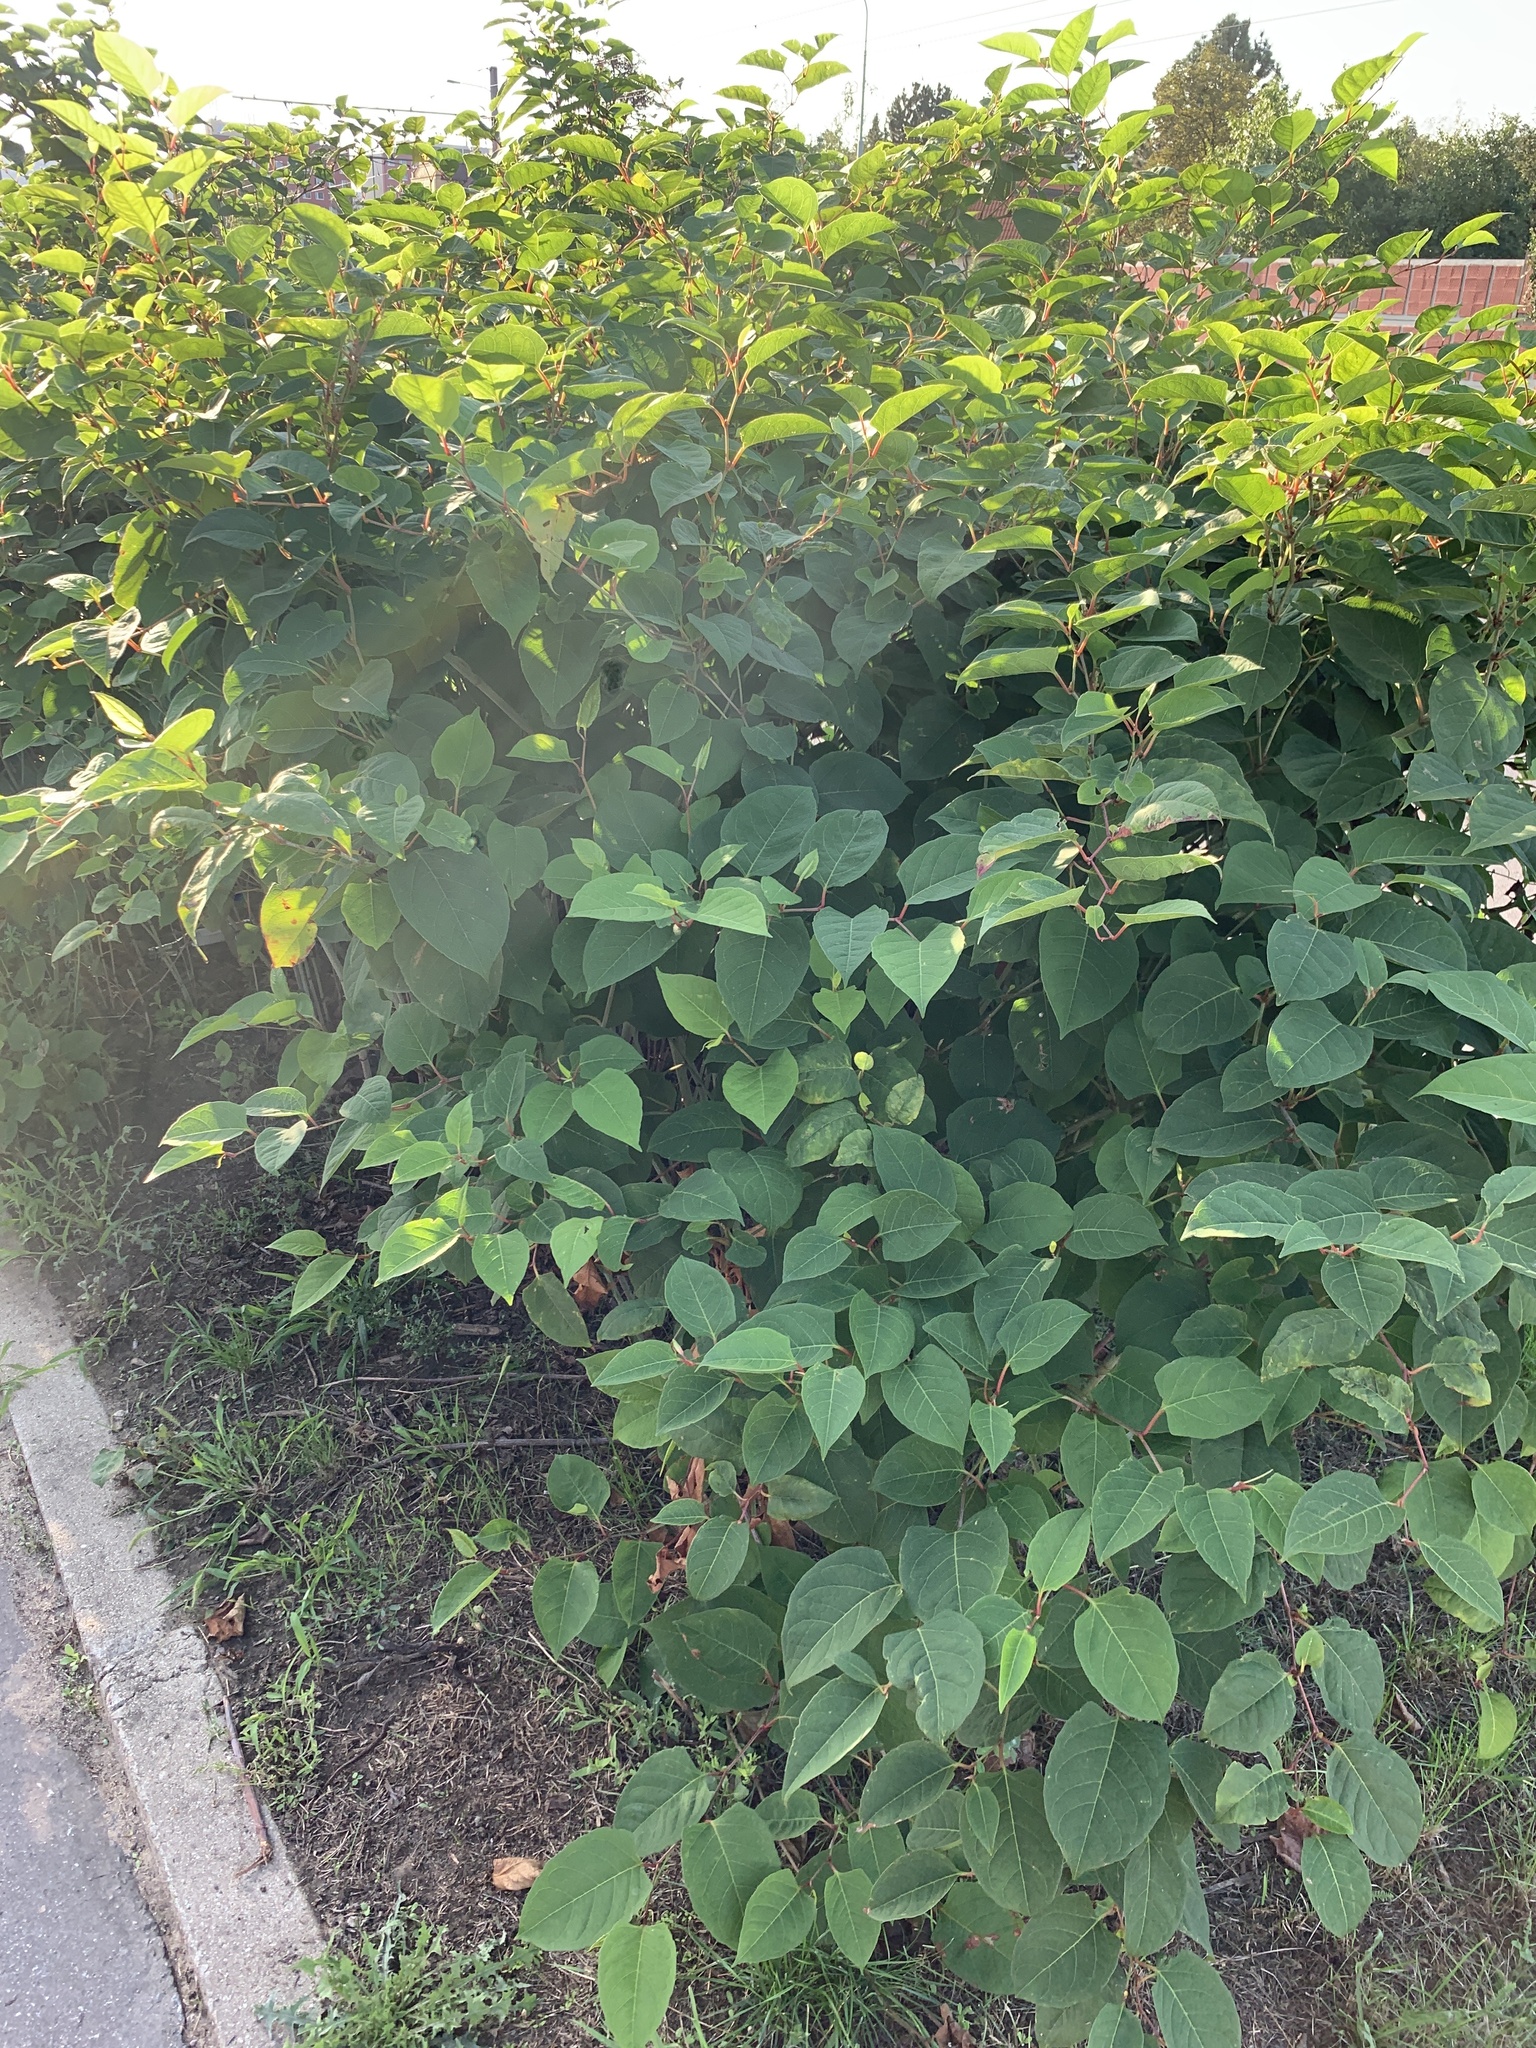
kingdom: Plantae
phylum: Tracheophyta
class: Magnoliopsida
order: Caryophyllales
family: Polygonaceae
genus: Reynoutria
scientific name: Reynoutria japonica
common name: Japanese knotweed
